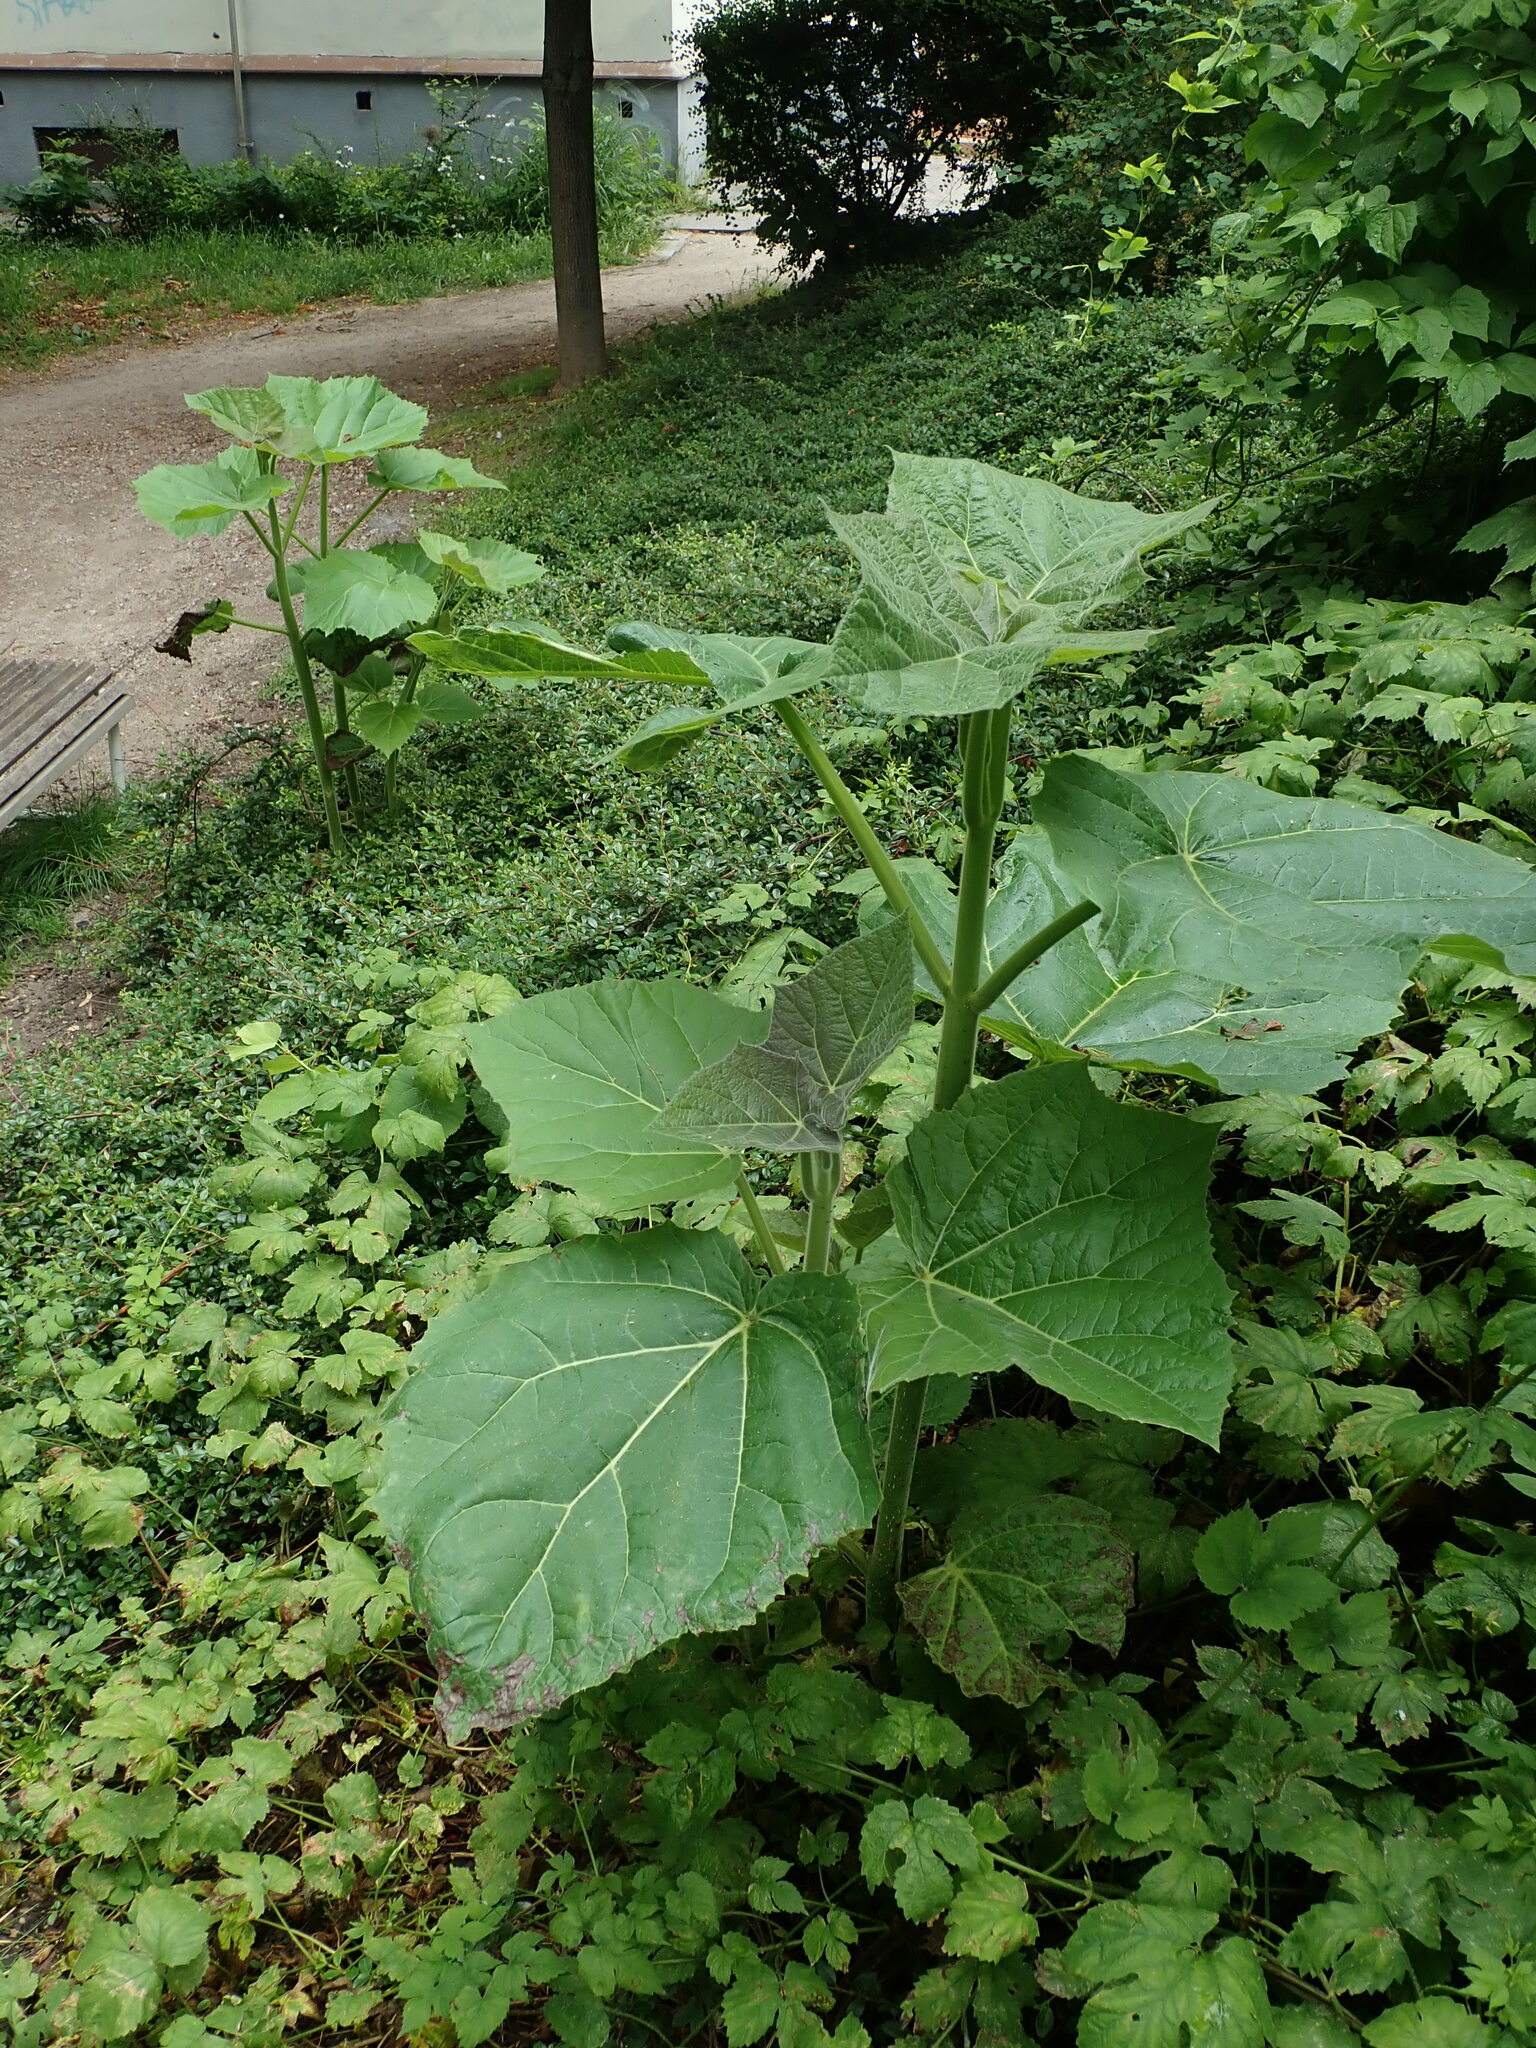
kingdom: Plantae
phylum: Tracheophyta
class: Magnoliopsida
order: Lamiales
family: Paulowniaceae
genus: Paulownia
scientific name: Paulownia tomentosa
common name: Foxglove-tree
